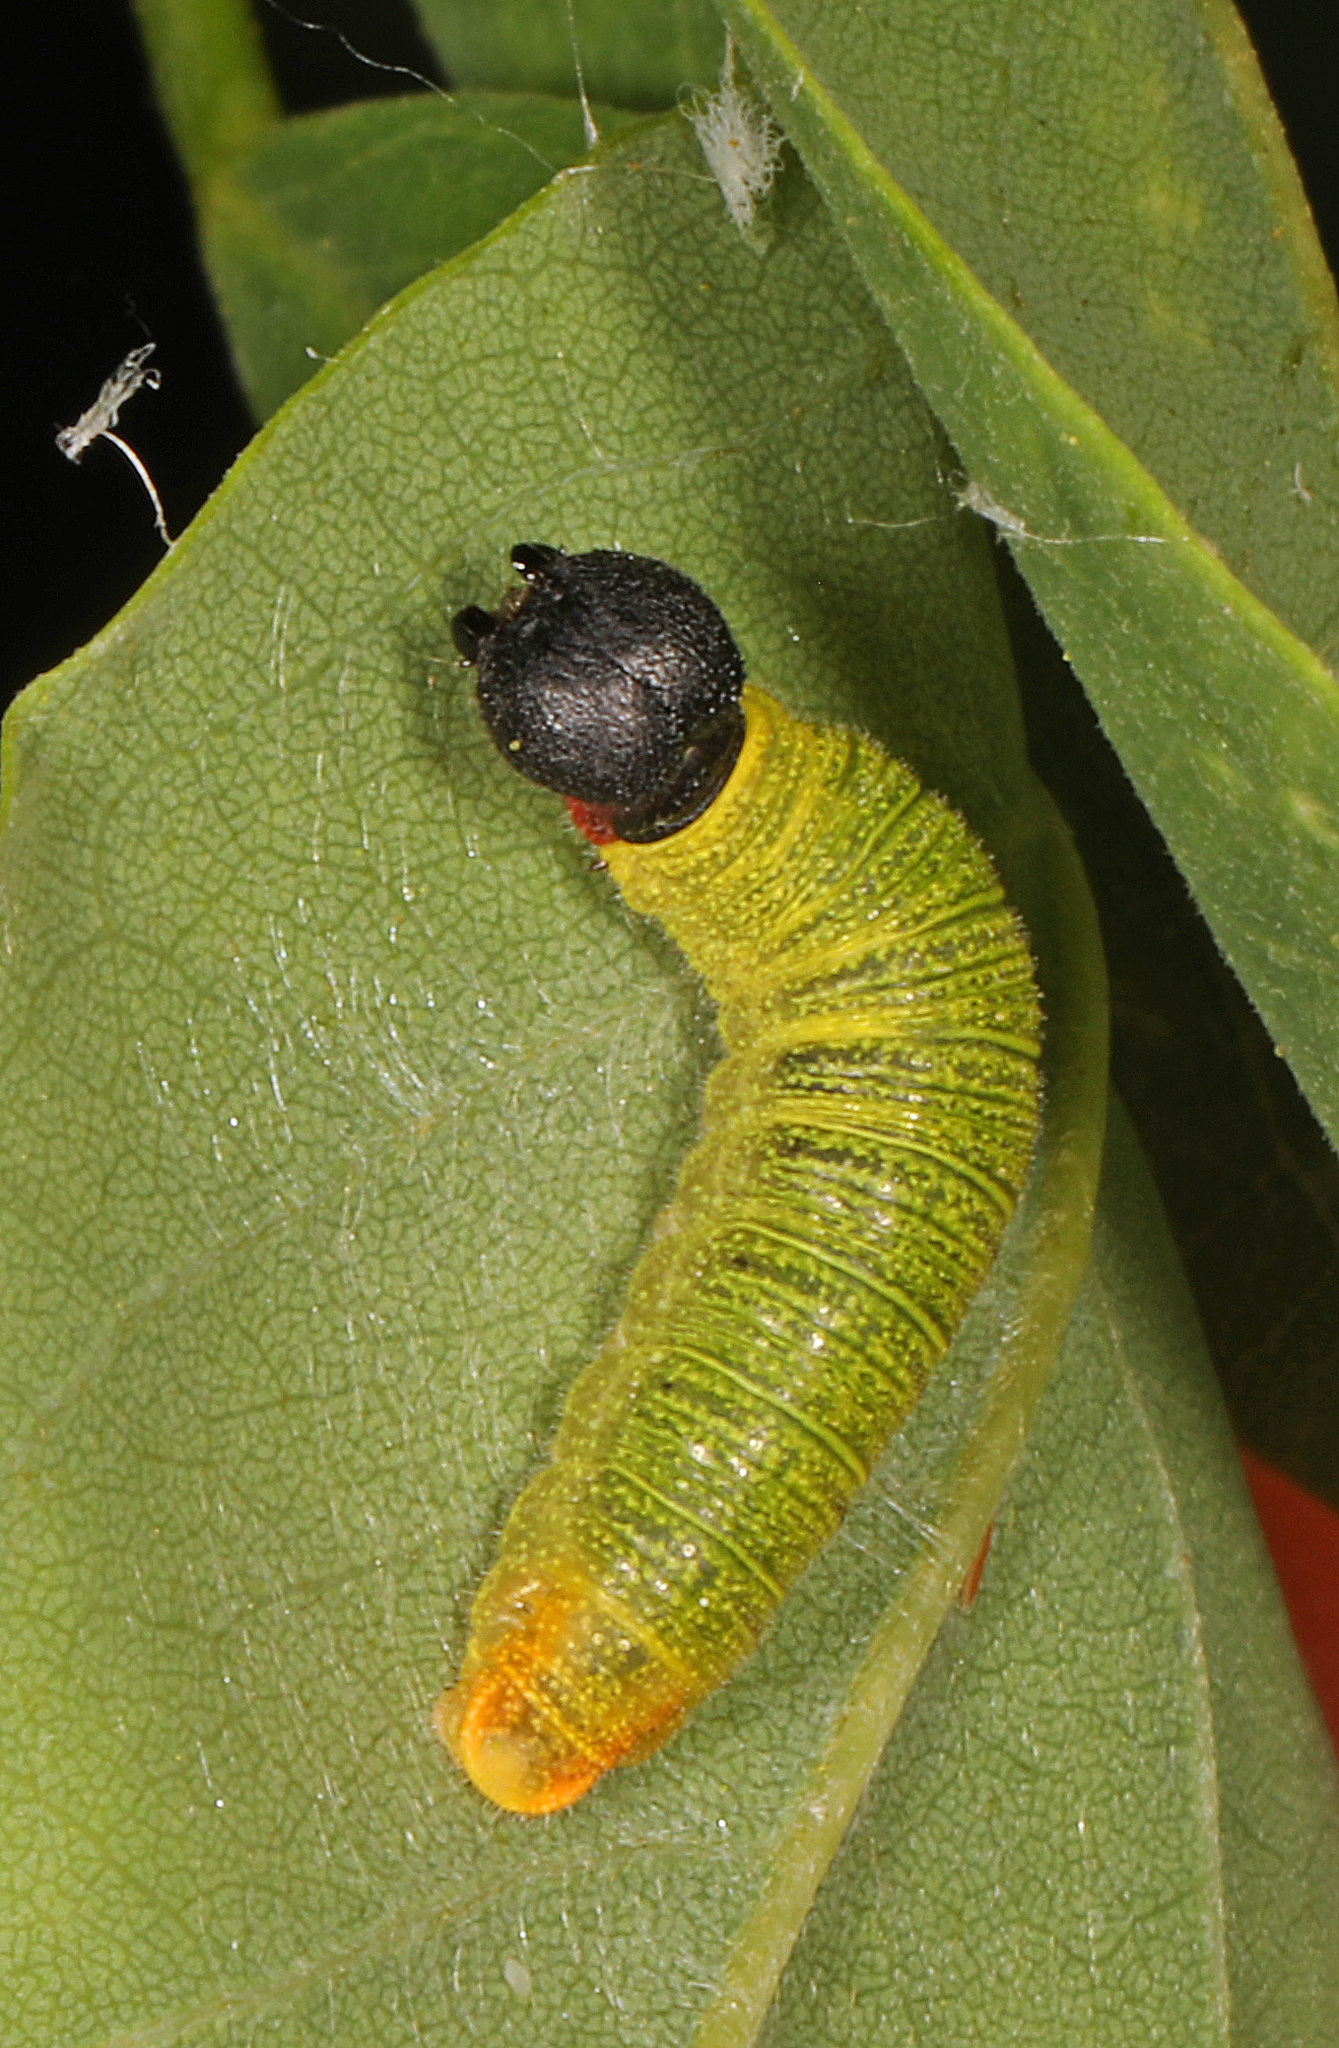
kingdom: Animalia
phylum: Arthropoda
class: Insecta
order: Lepidoptera
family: Hesperiidae
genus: Epargyreus
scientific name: Epargyreus clarus
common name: Silver-spotted skipper
